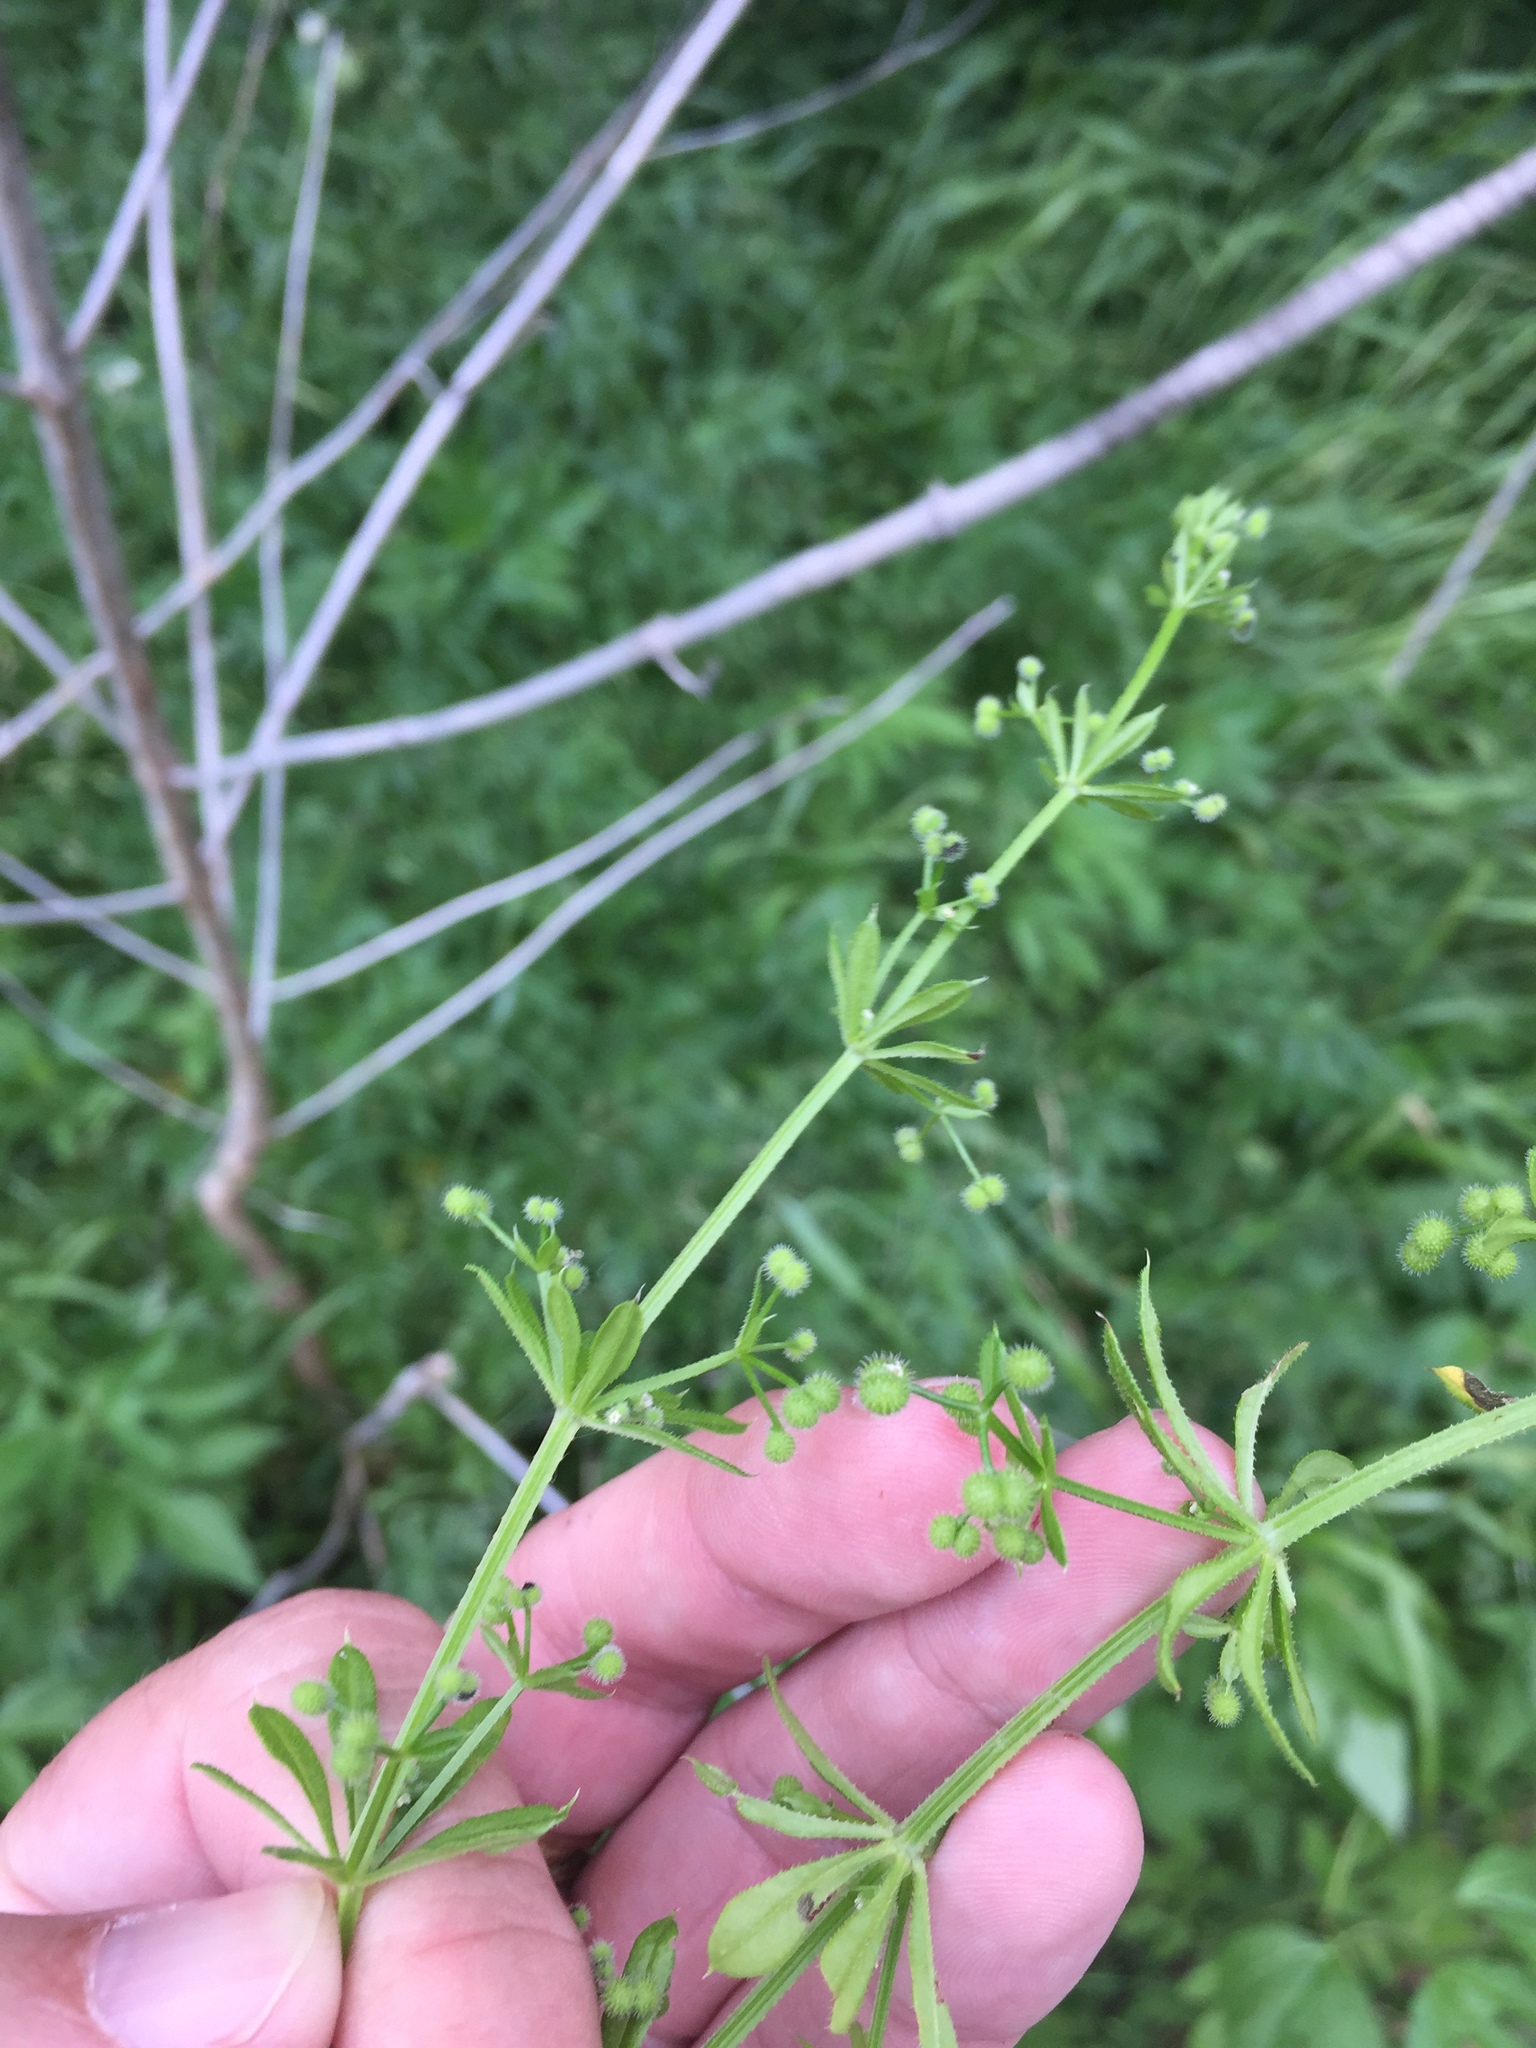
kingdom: Plantae
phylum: Tracheophyta
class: Magnoliopsida
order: Gentianales
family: Rubiaceae
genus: Galium
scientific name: Galium aparine
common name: Cleavers
